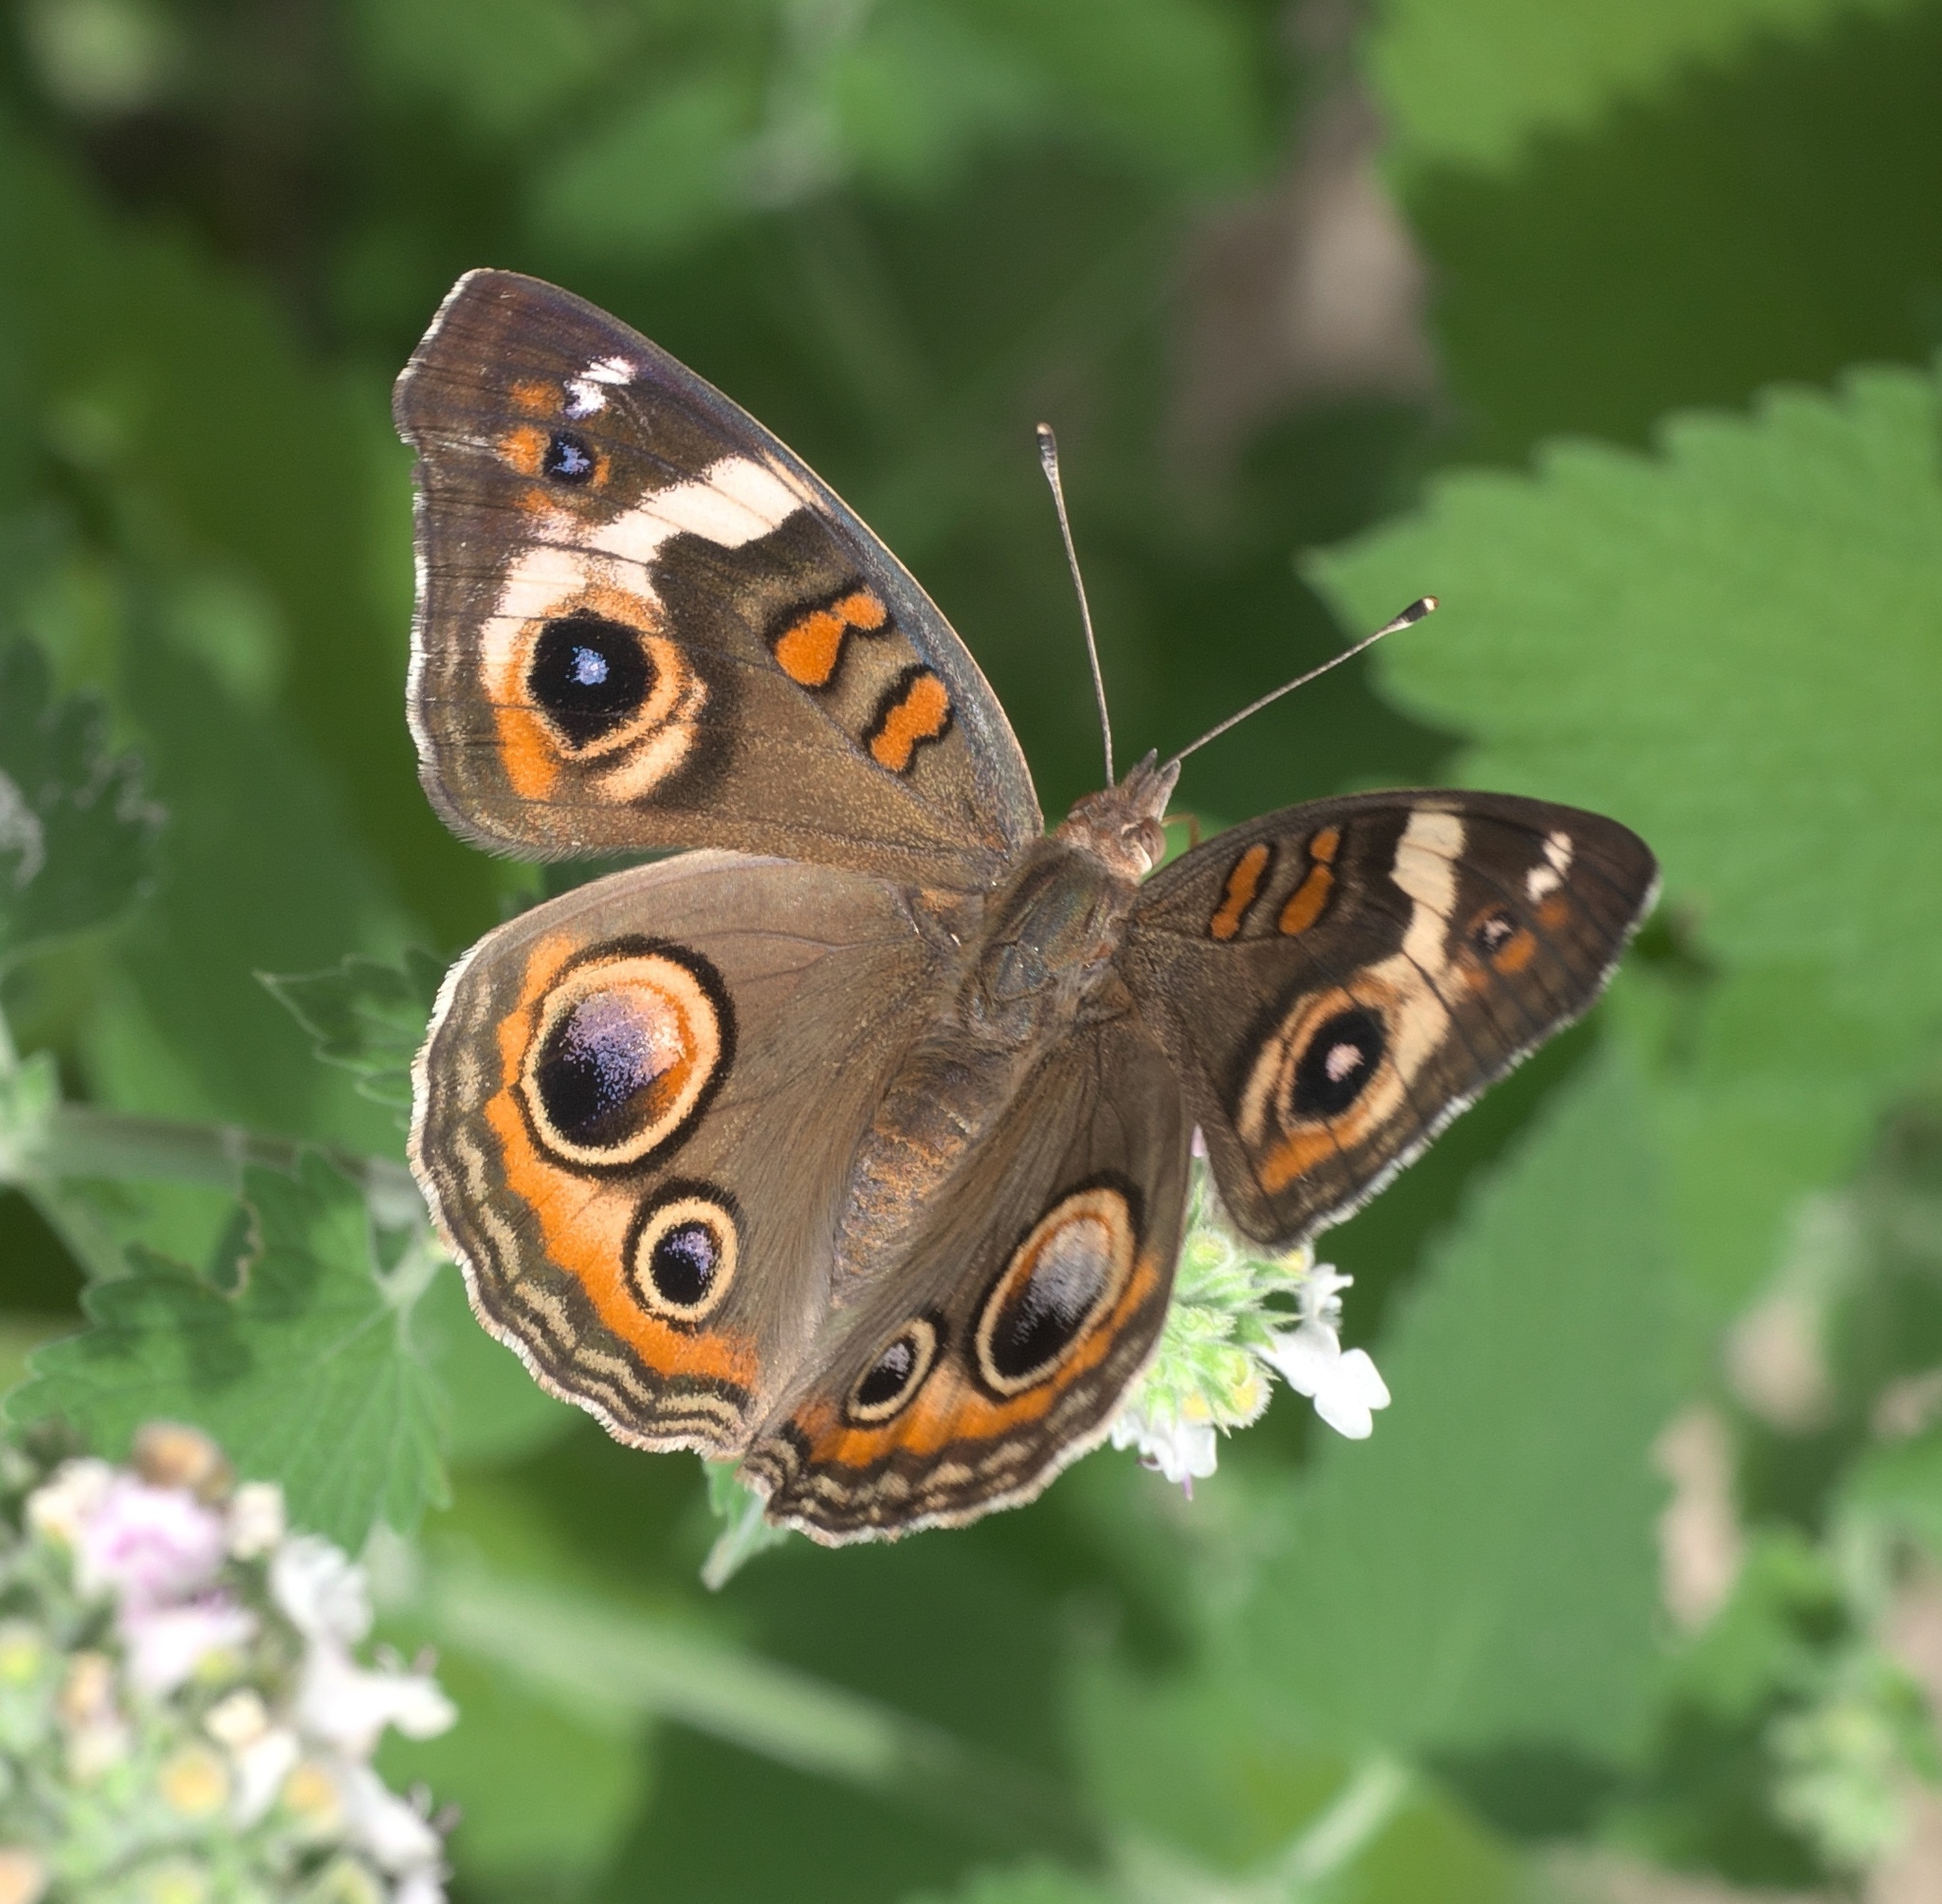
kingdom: Animalia
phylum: Arthropoda
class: Insecta
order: Lepidoptera
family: Nymphalidae
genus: Junonia
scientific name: Junonia coenia
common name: Common buckeye
